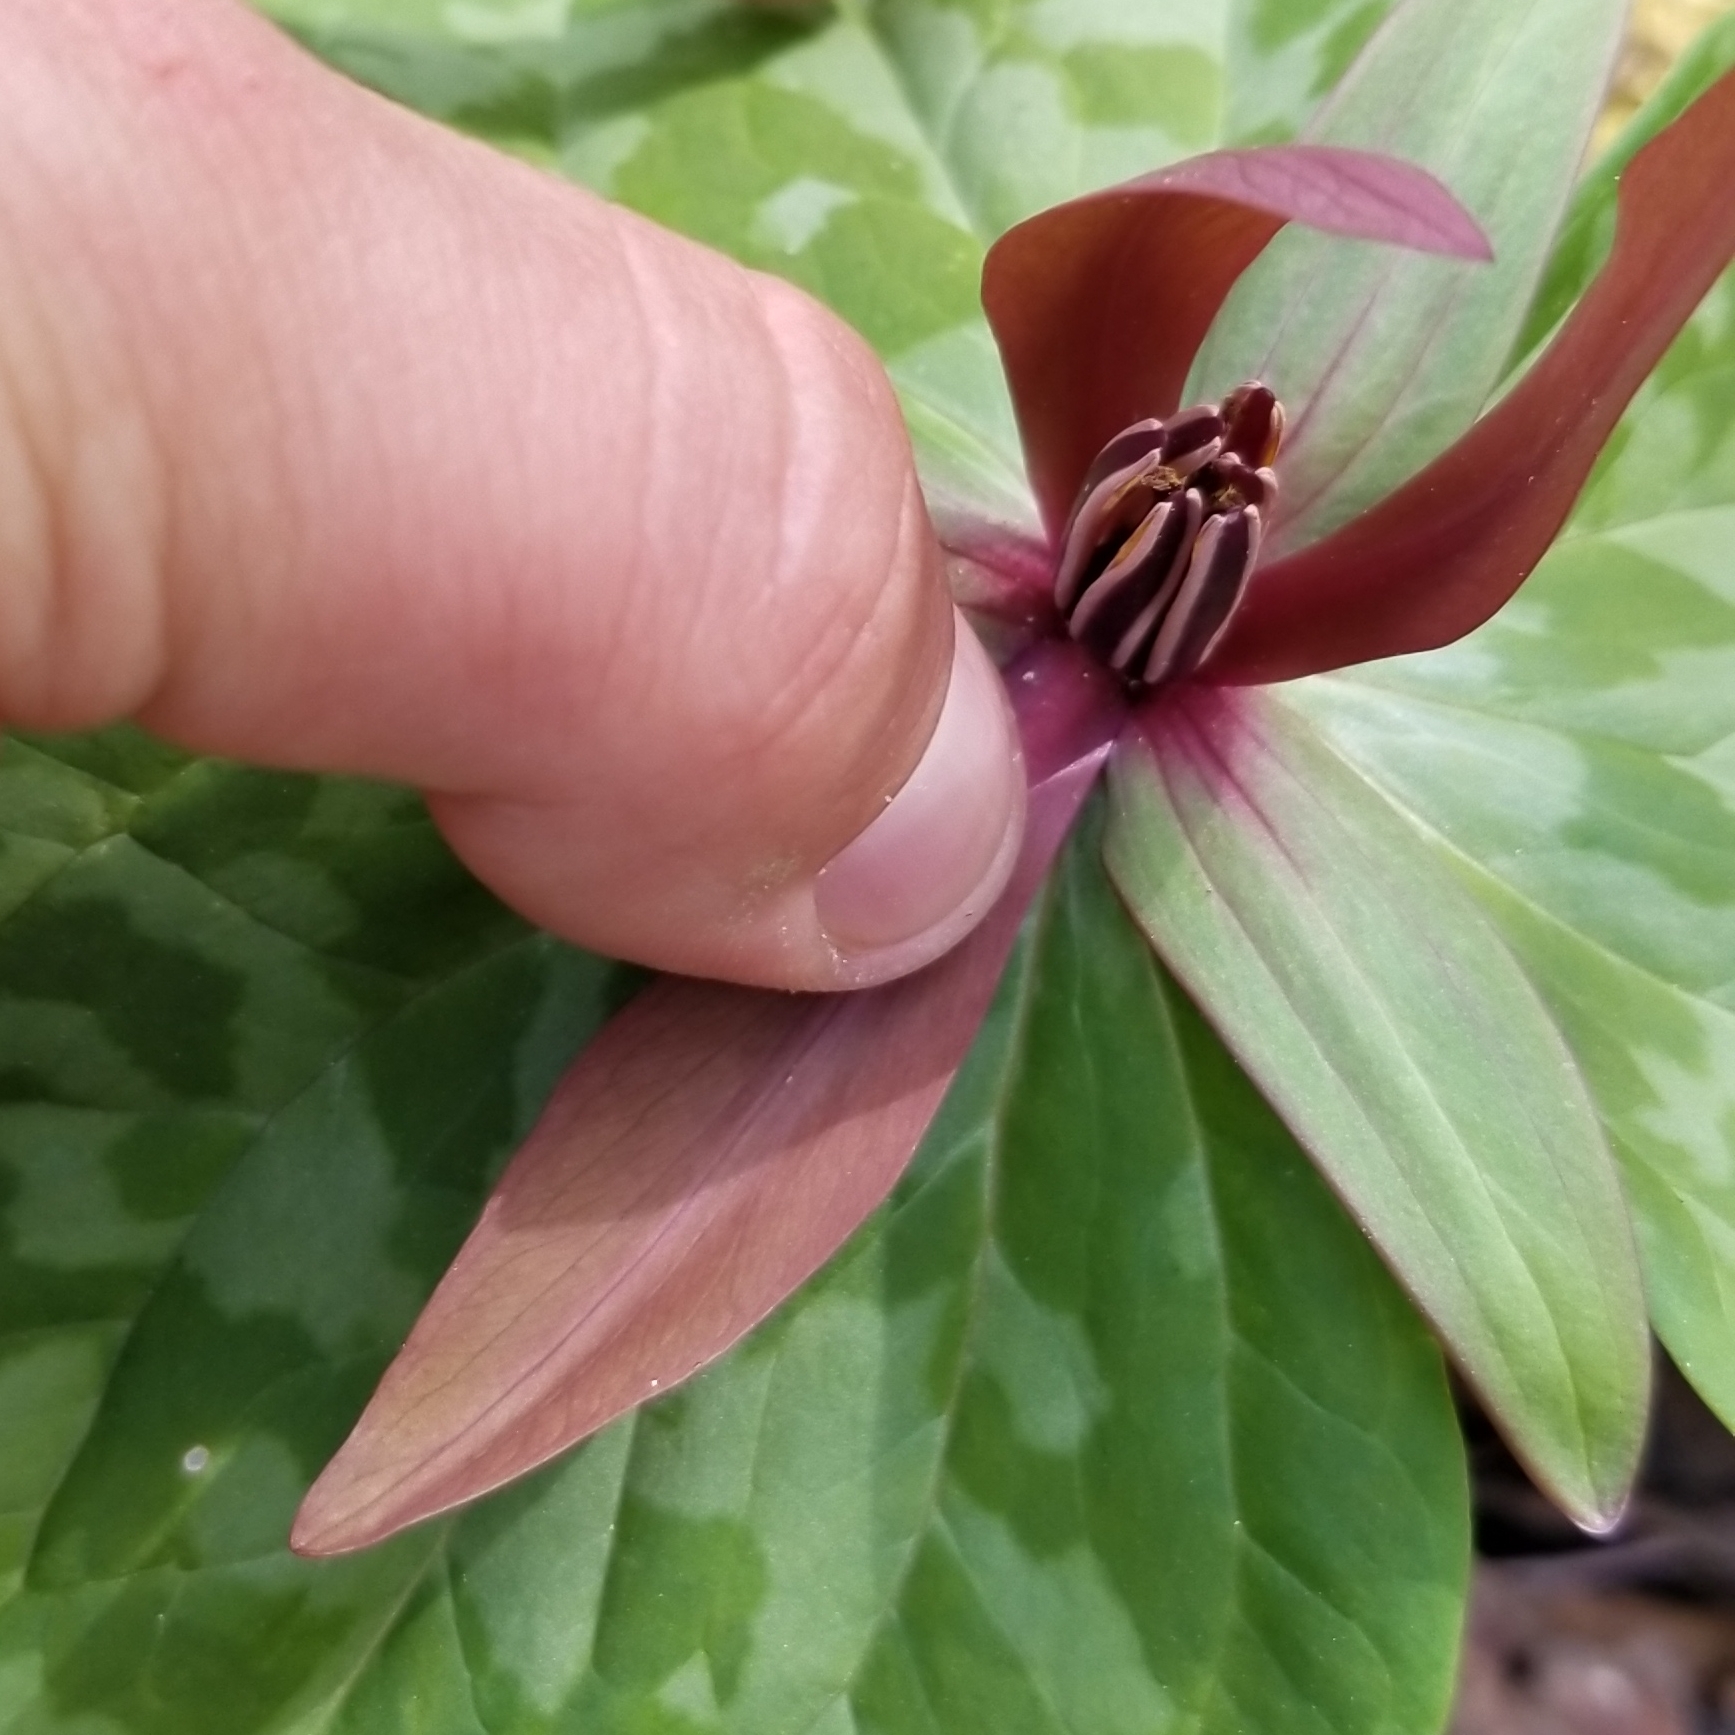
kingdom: Plantae
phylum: Tracheophyta
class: Liliopsida
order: Liliales
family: Melanthiaceae
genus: Trillium
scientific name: Trillium cuneatum
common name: Cuneate trillium
